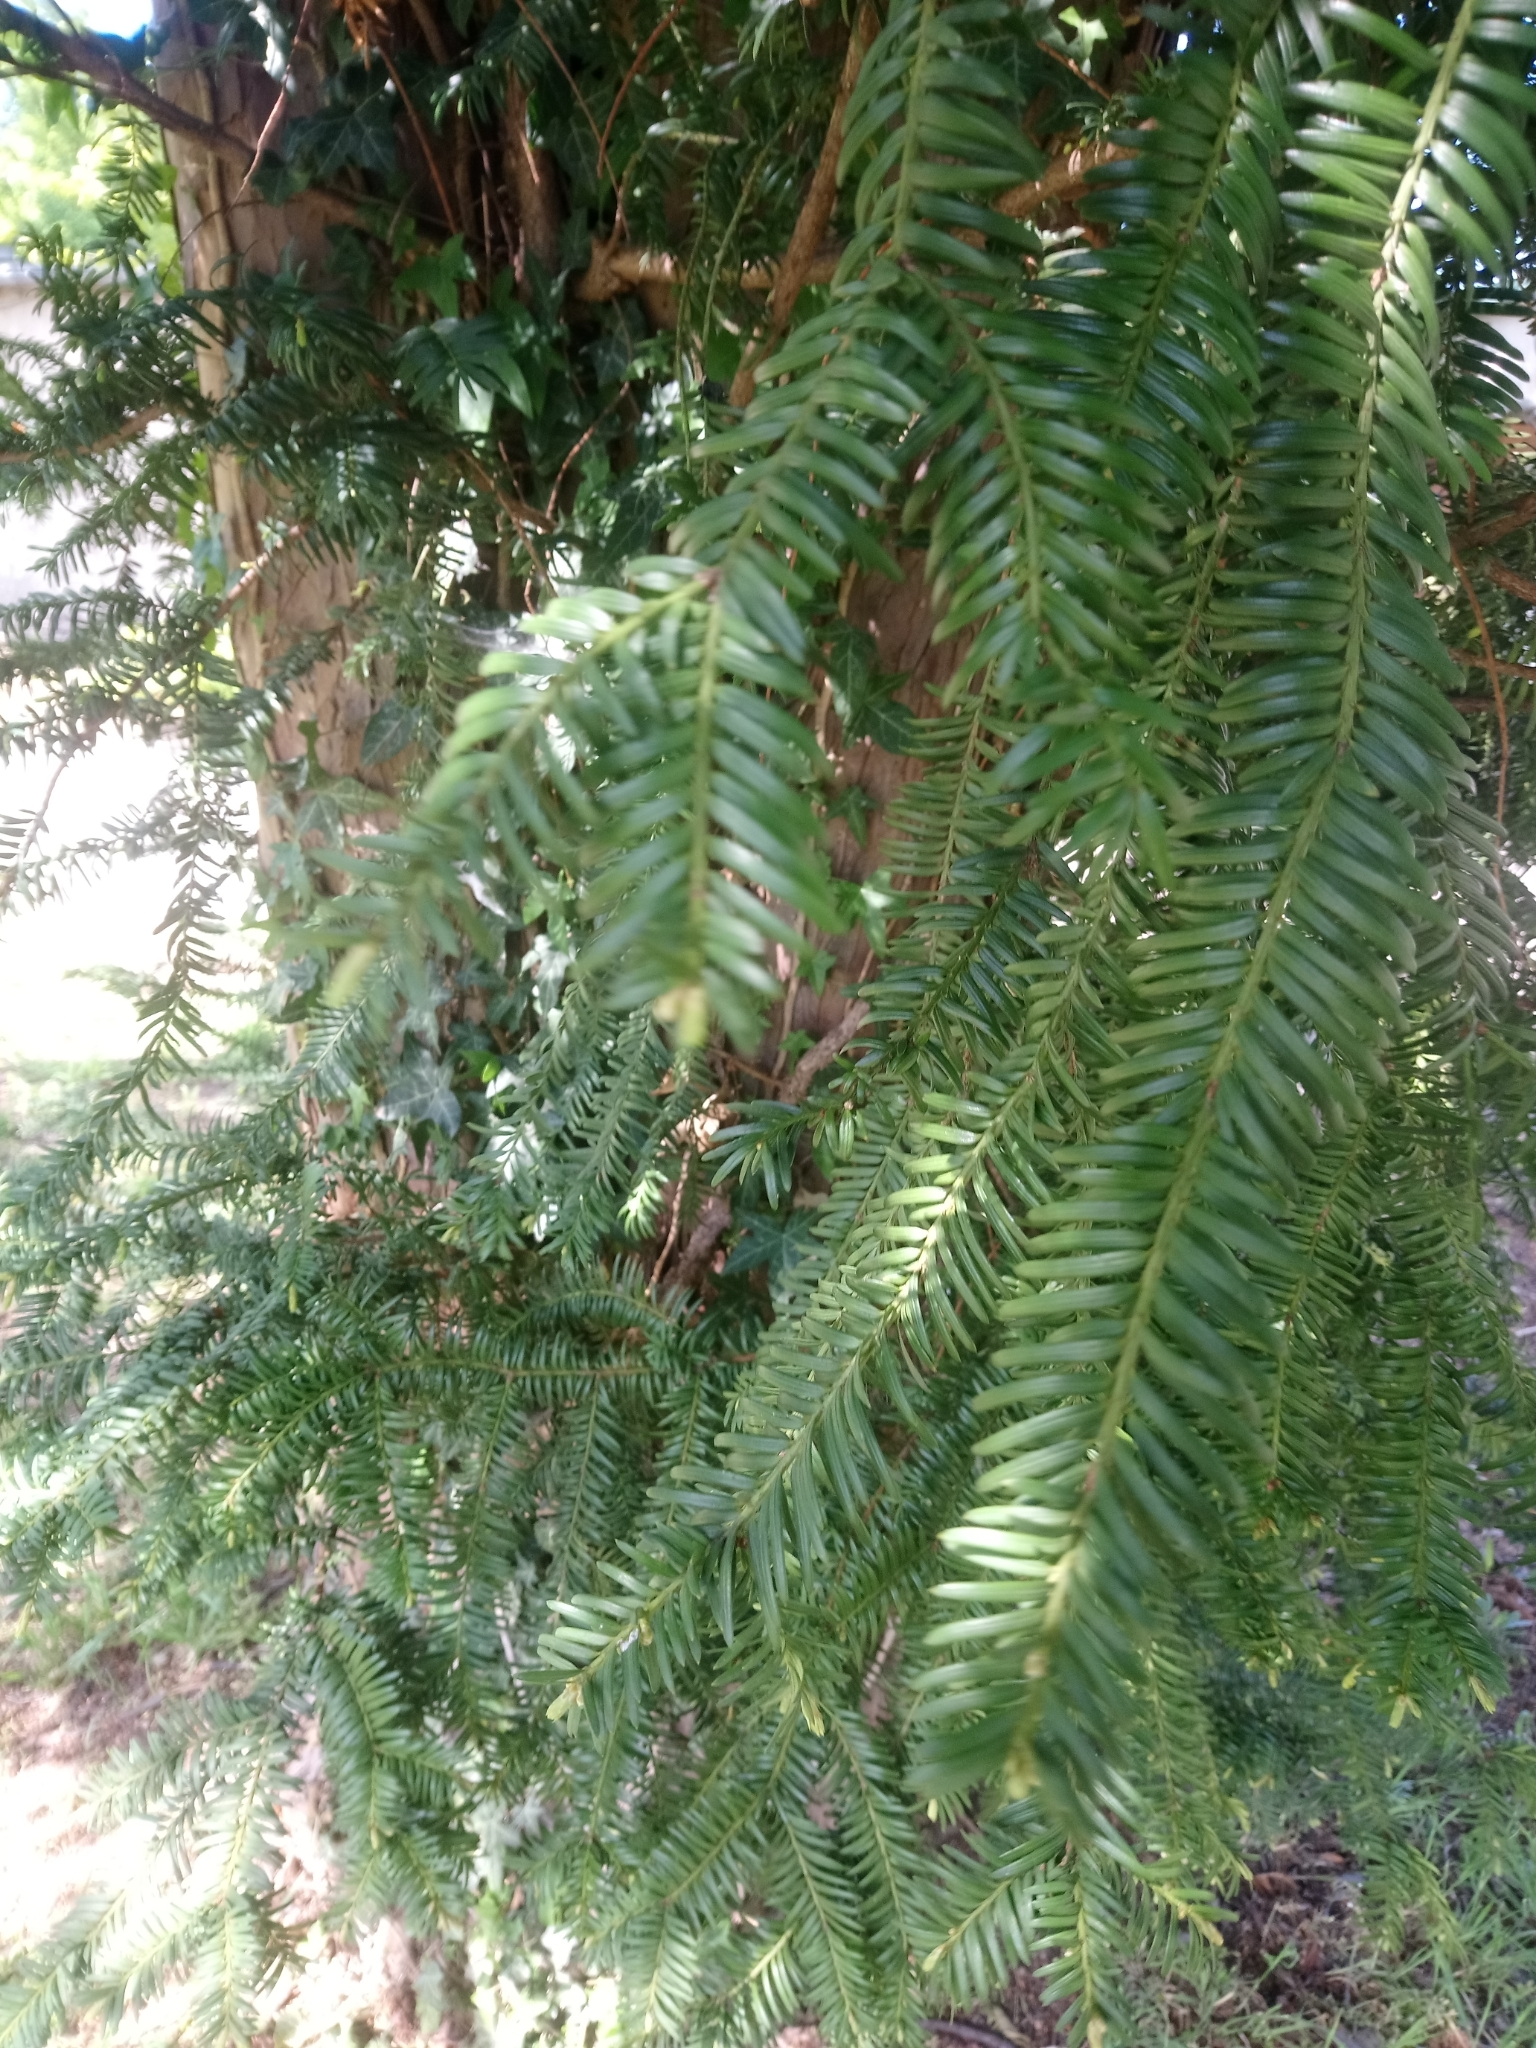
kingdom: Plantae
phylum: Tracheophyta
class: Pinopsida
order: Pinales
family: Taxaceae
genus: Taxus
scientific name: Taxus baccata
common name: Yew
